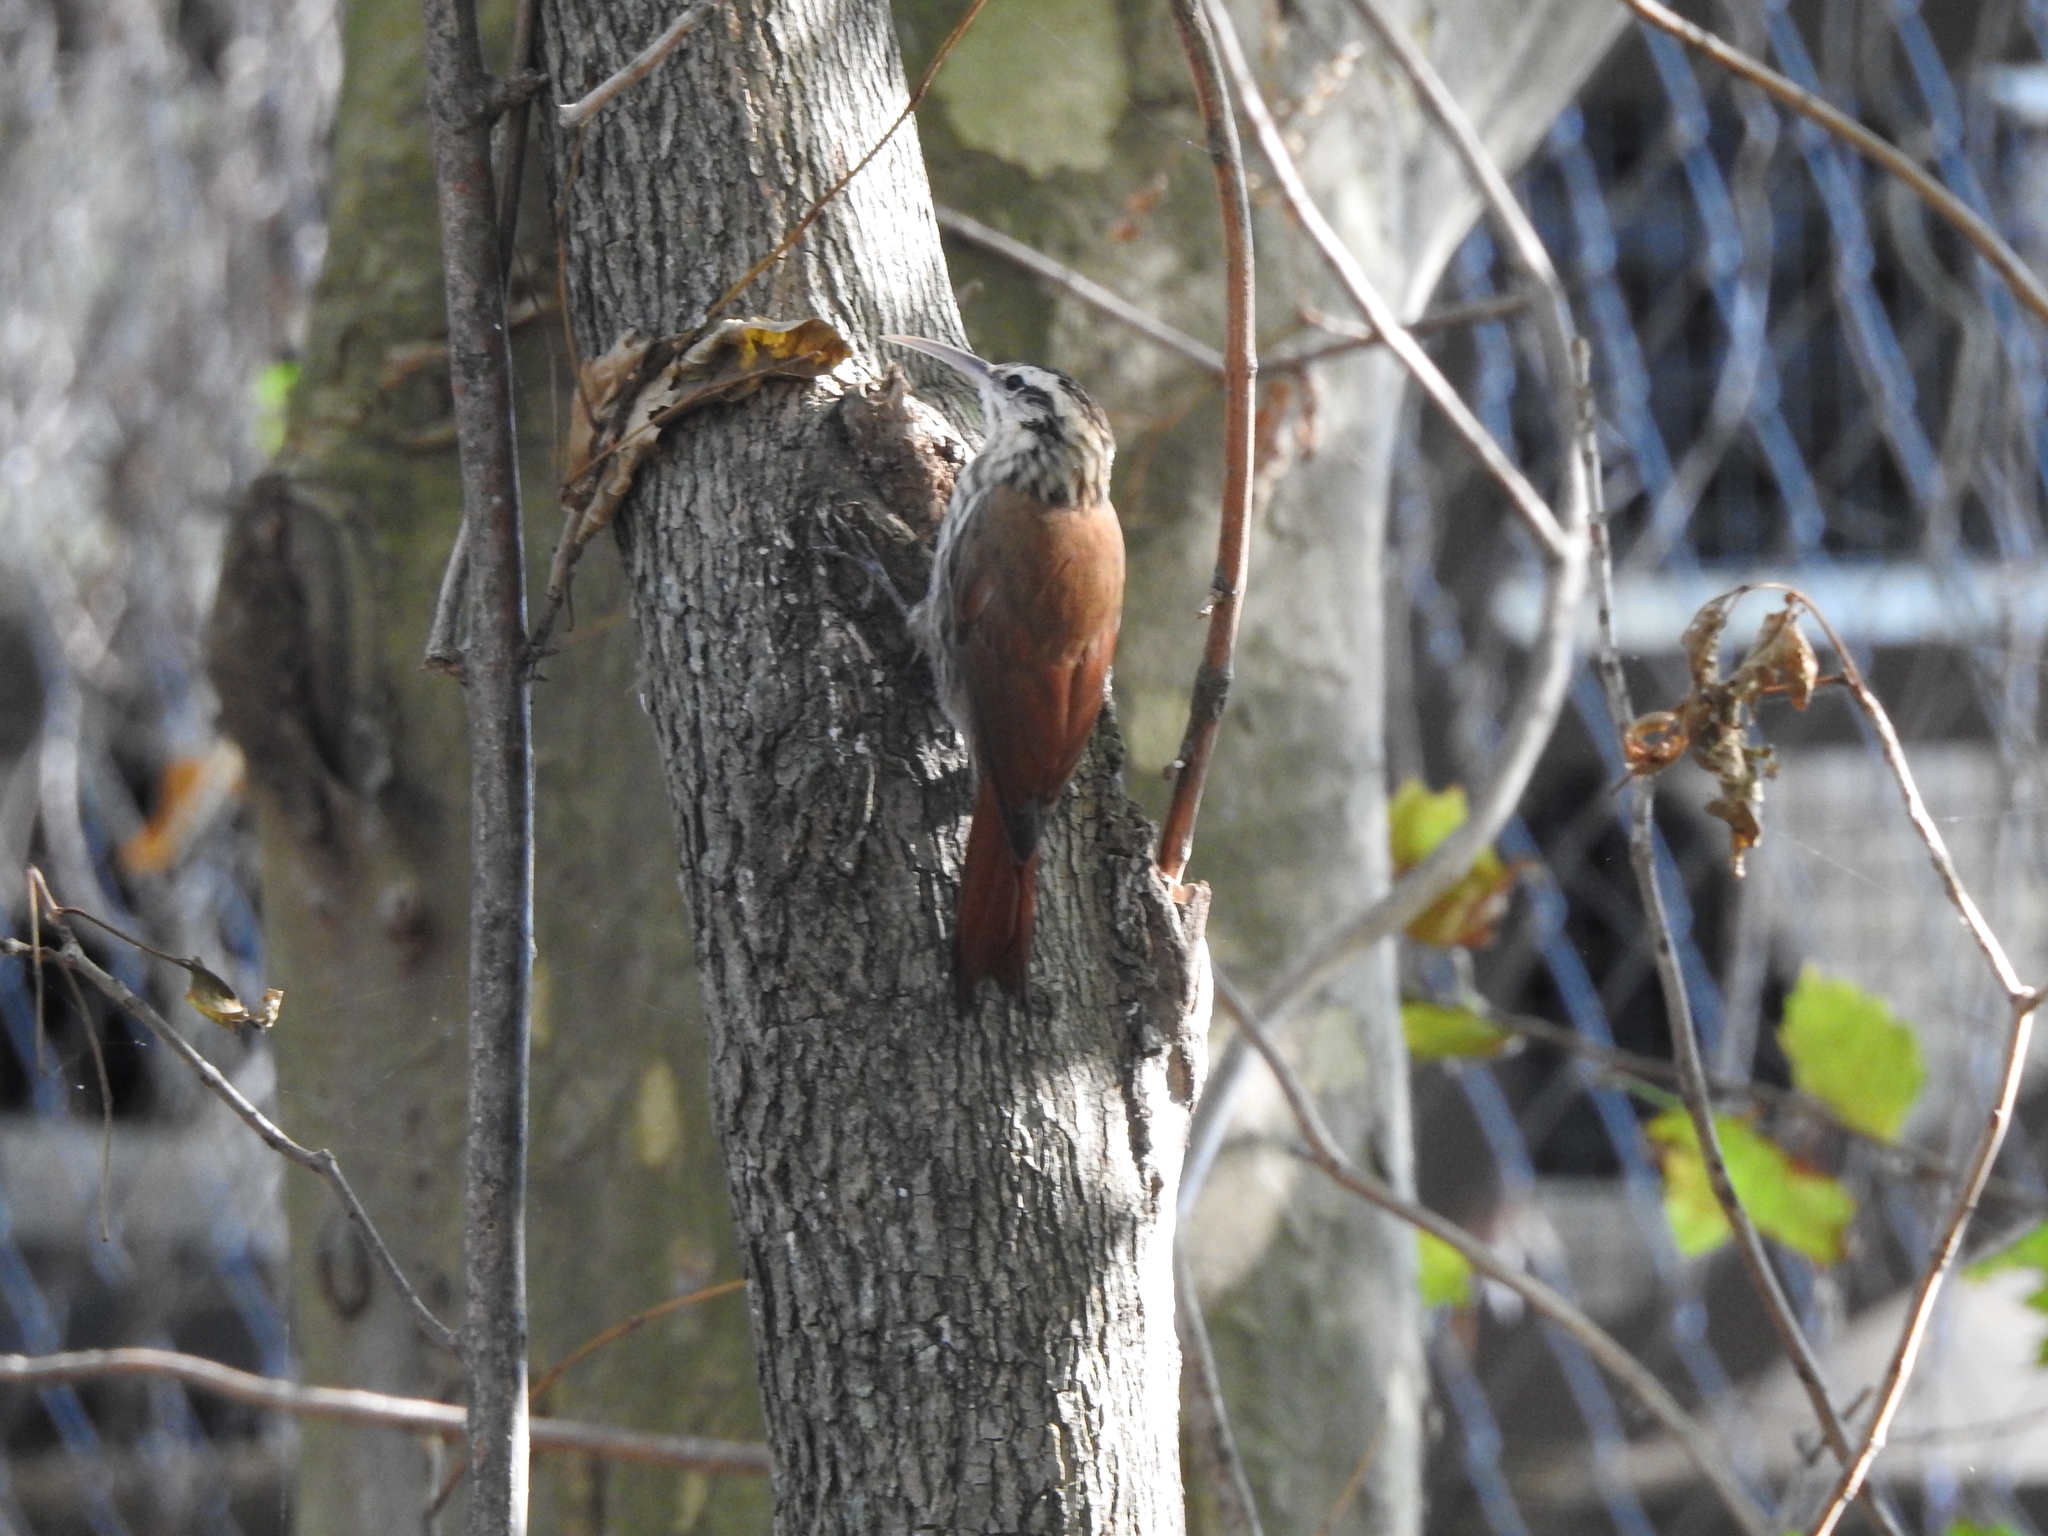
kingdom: Animalia
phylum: Chordata
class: Aves
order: Passeriformes
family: Furnariidae
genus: Lepidocolaptes
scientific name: Lepidocolaptes angustirostris
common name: Narrow-billed woodcreeper
